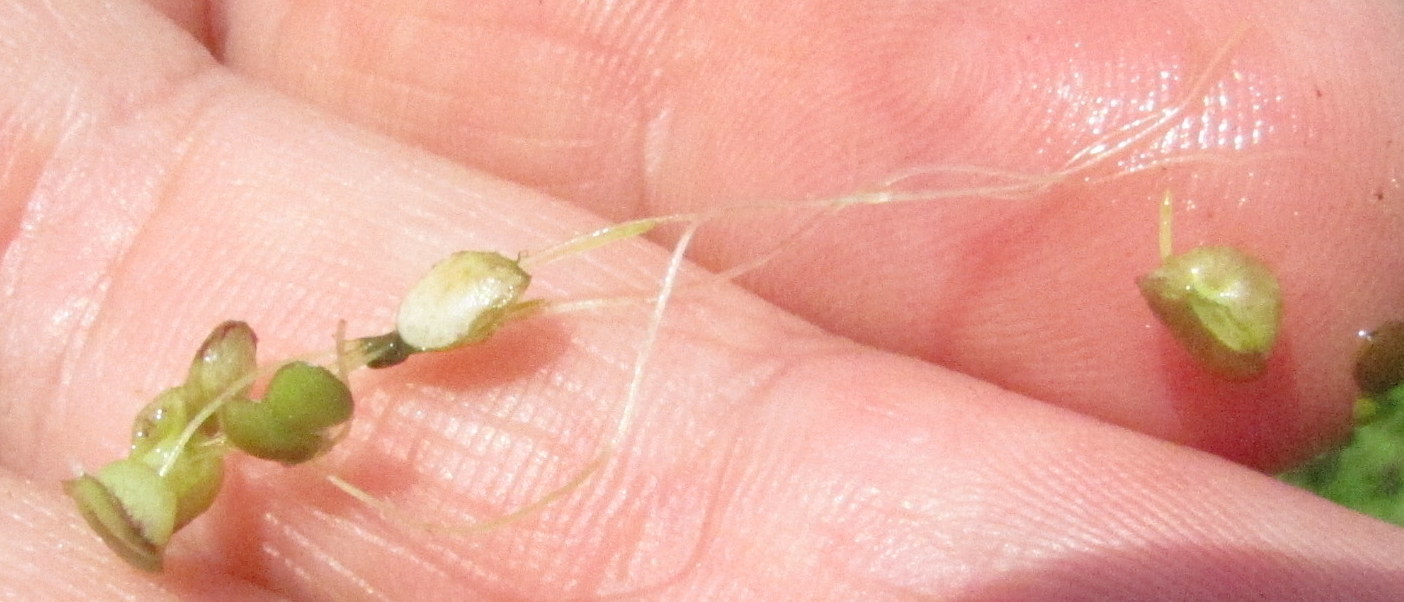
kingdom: Plantae
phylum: Tracheophyta
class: Liliopsida
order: Alismatales
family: Araceae
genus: Lemna
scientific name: Lemna gibba
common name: Fat duckweed
